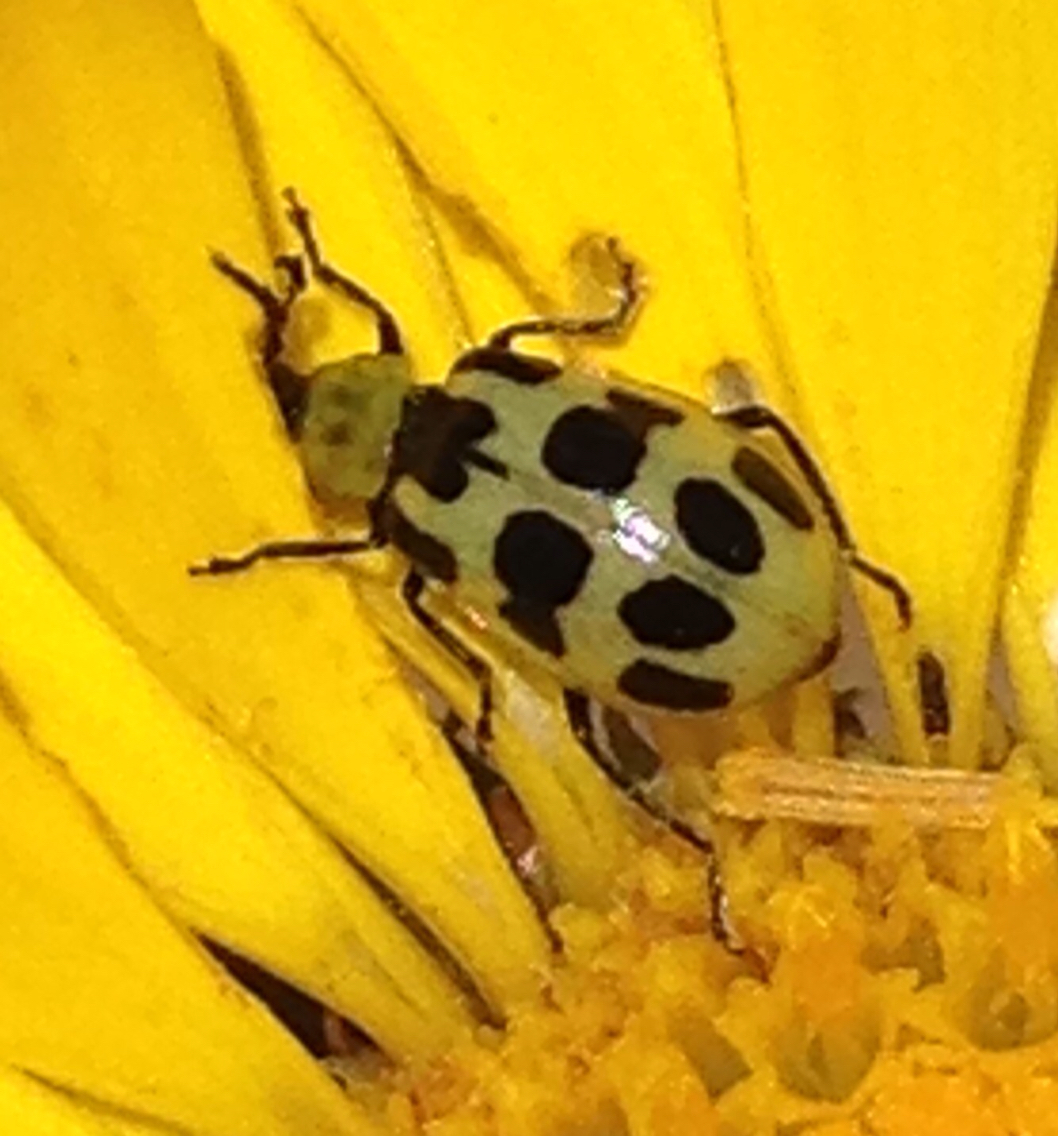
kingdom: Animalia
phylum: Arthropoda
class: Insecta
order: Coleoptera
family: Chrysomelidae
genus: Diabrotica
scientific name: Diabrotica undecimpunctata
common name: Spotted cucumber beetle
